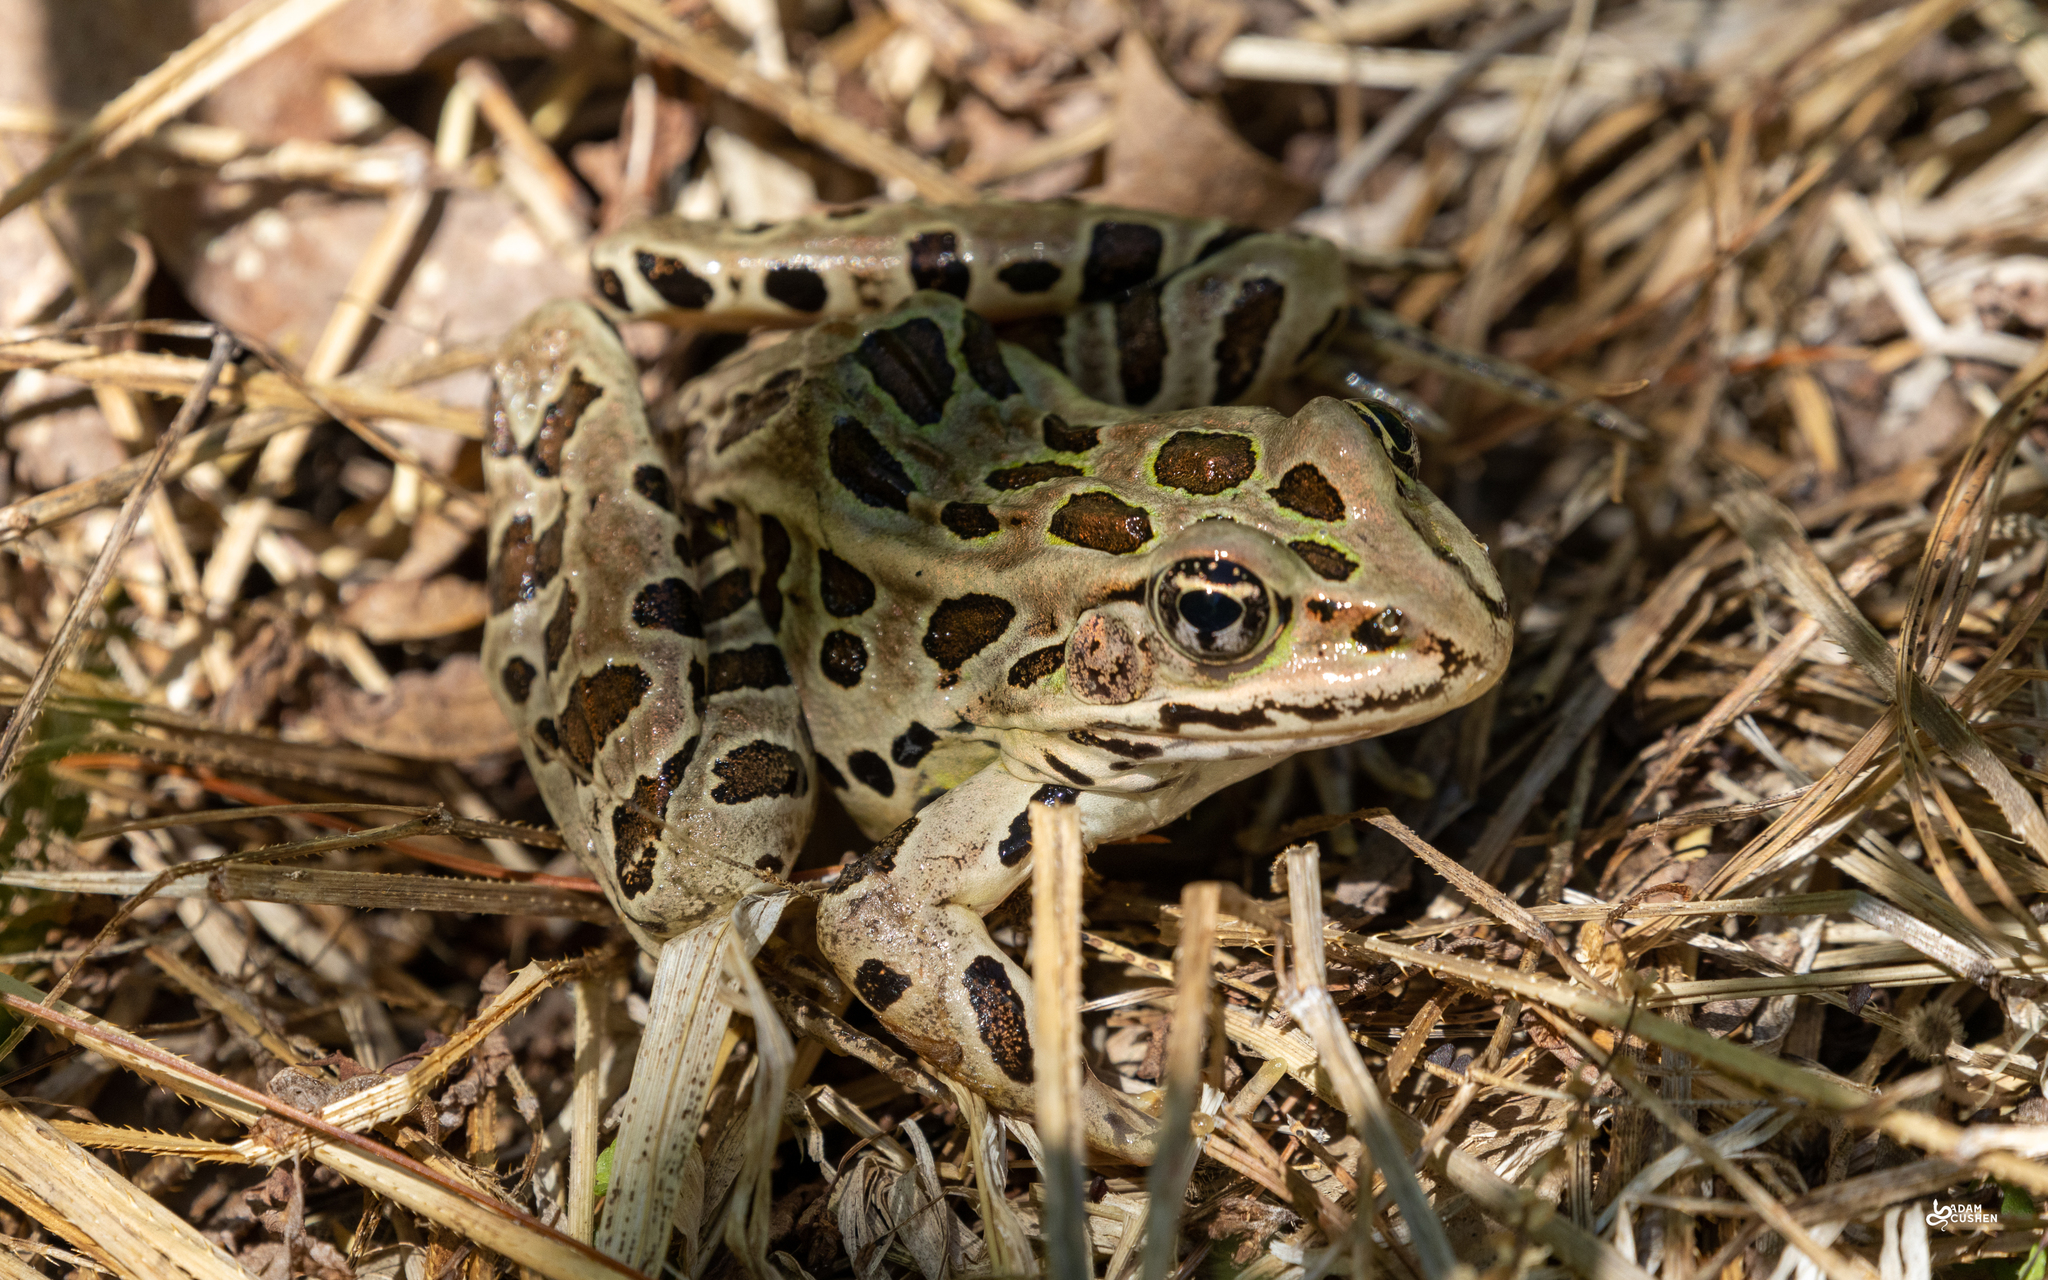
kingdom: Animalia
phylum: Chordata
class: Amphibia
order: Anura
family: Ranidae
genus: Lithobates
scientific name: Lithobates pipiens
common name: Northern leopard frog
